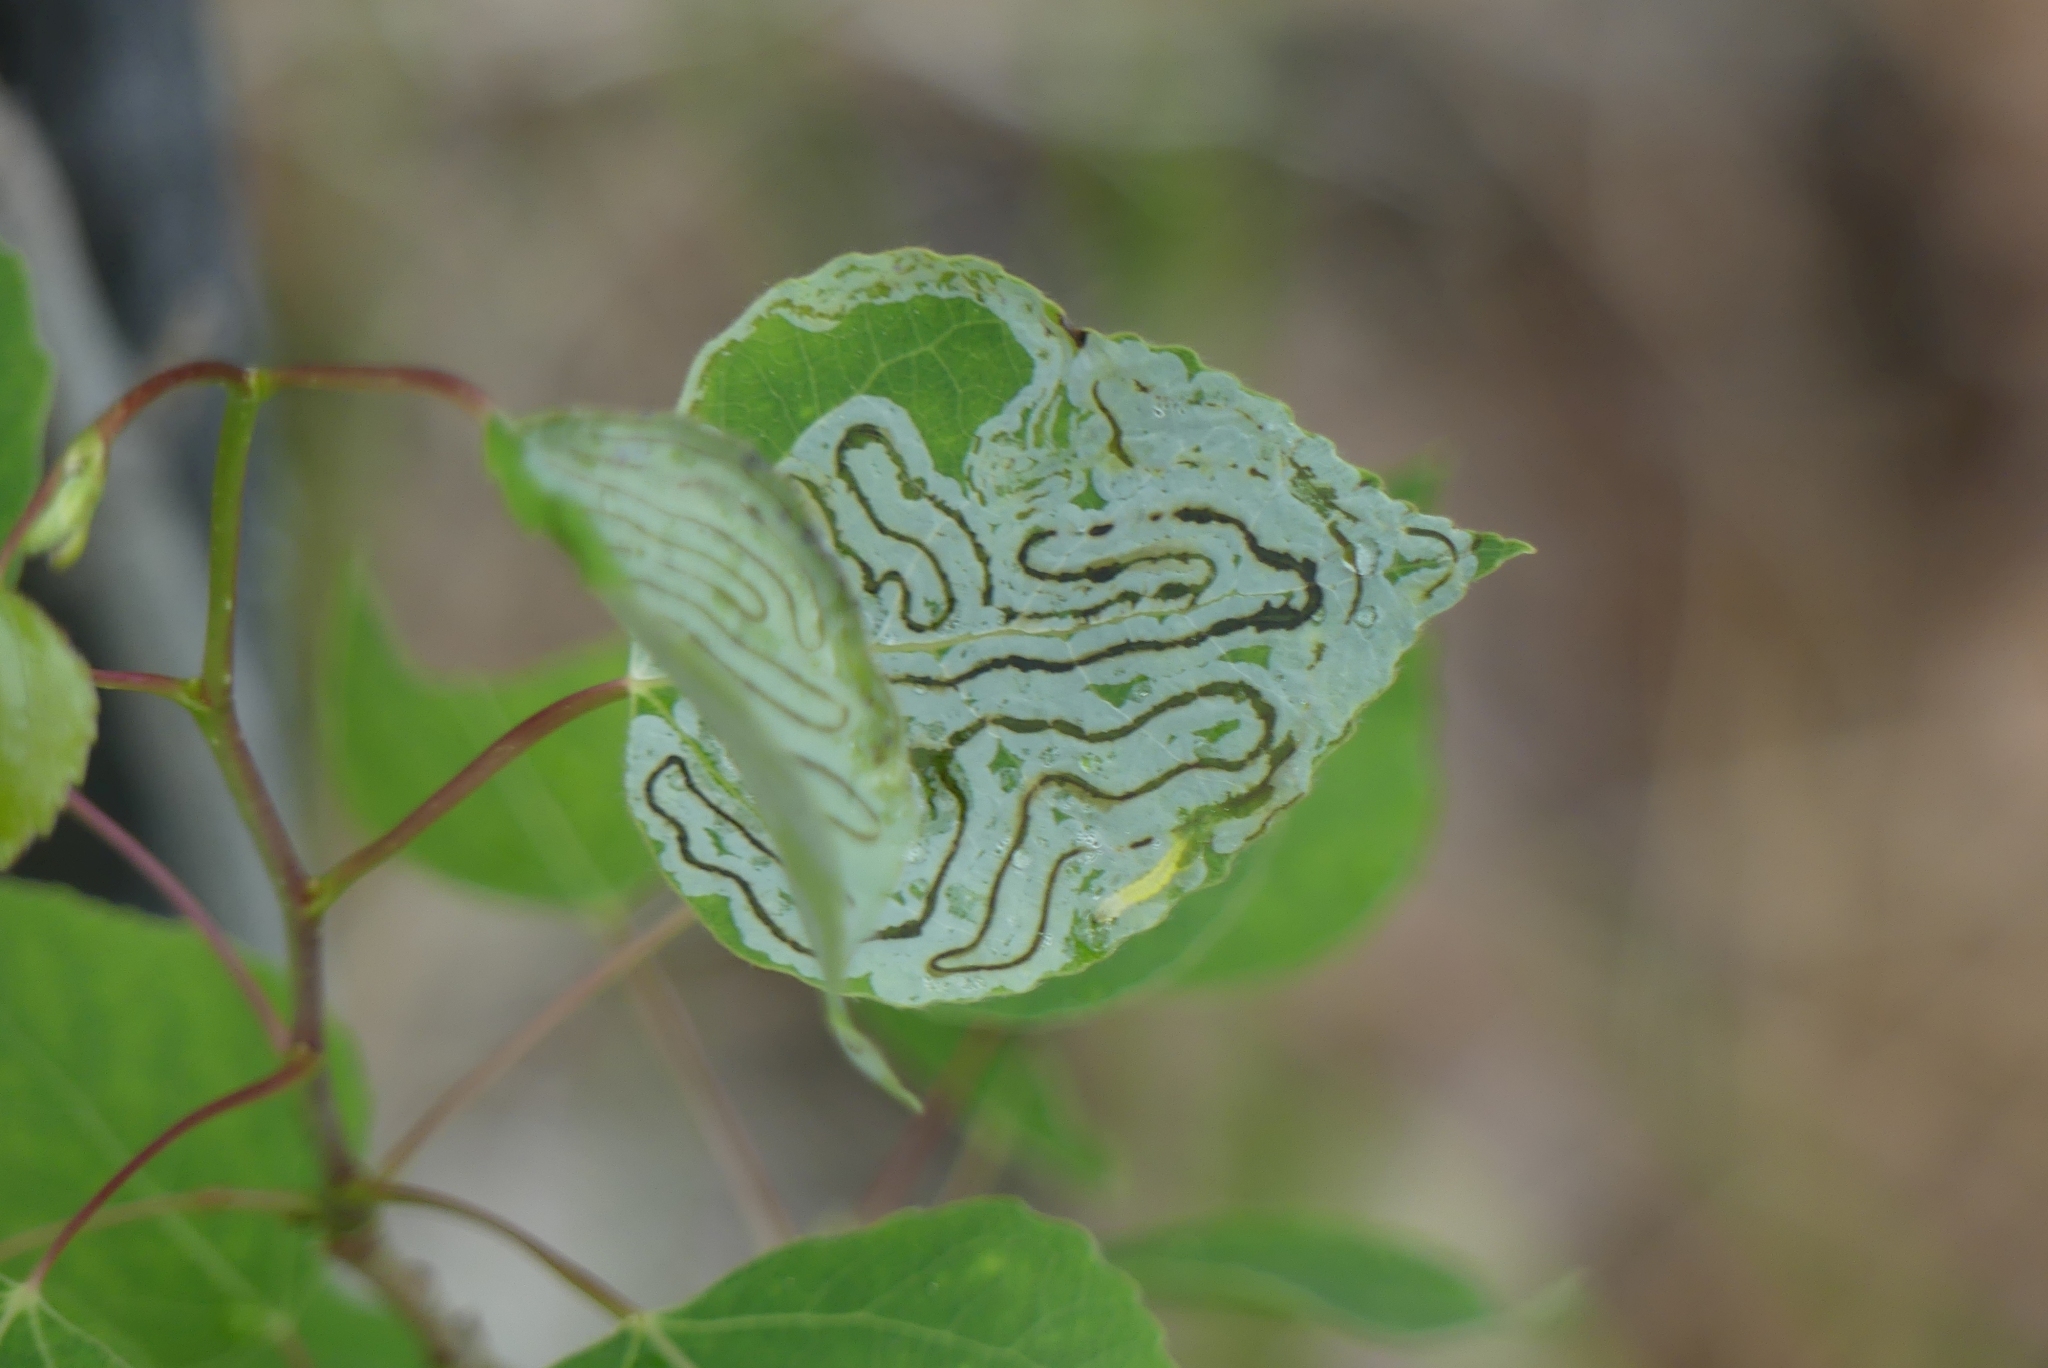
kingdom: Animalia
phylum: Arthropoda
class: Insecta
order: Lepidoptera
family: Gracillariidae
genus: Phyllocnistis
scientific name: Phyllocnistis populiella
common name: Aspen serpentine leafminer moth
